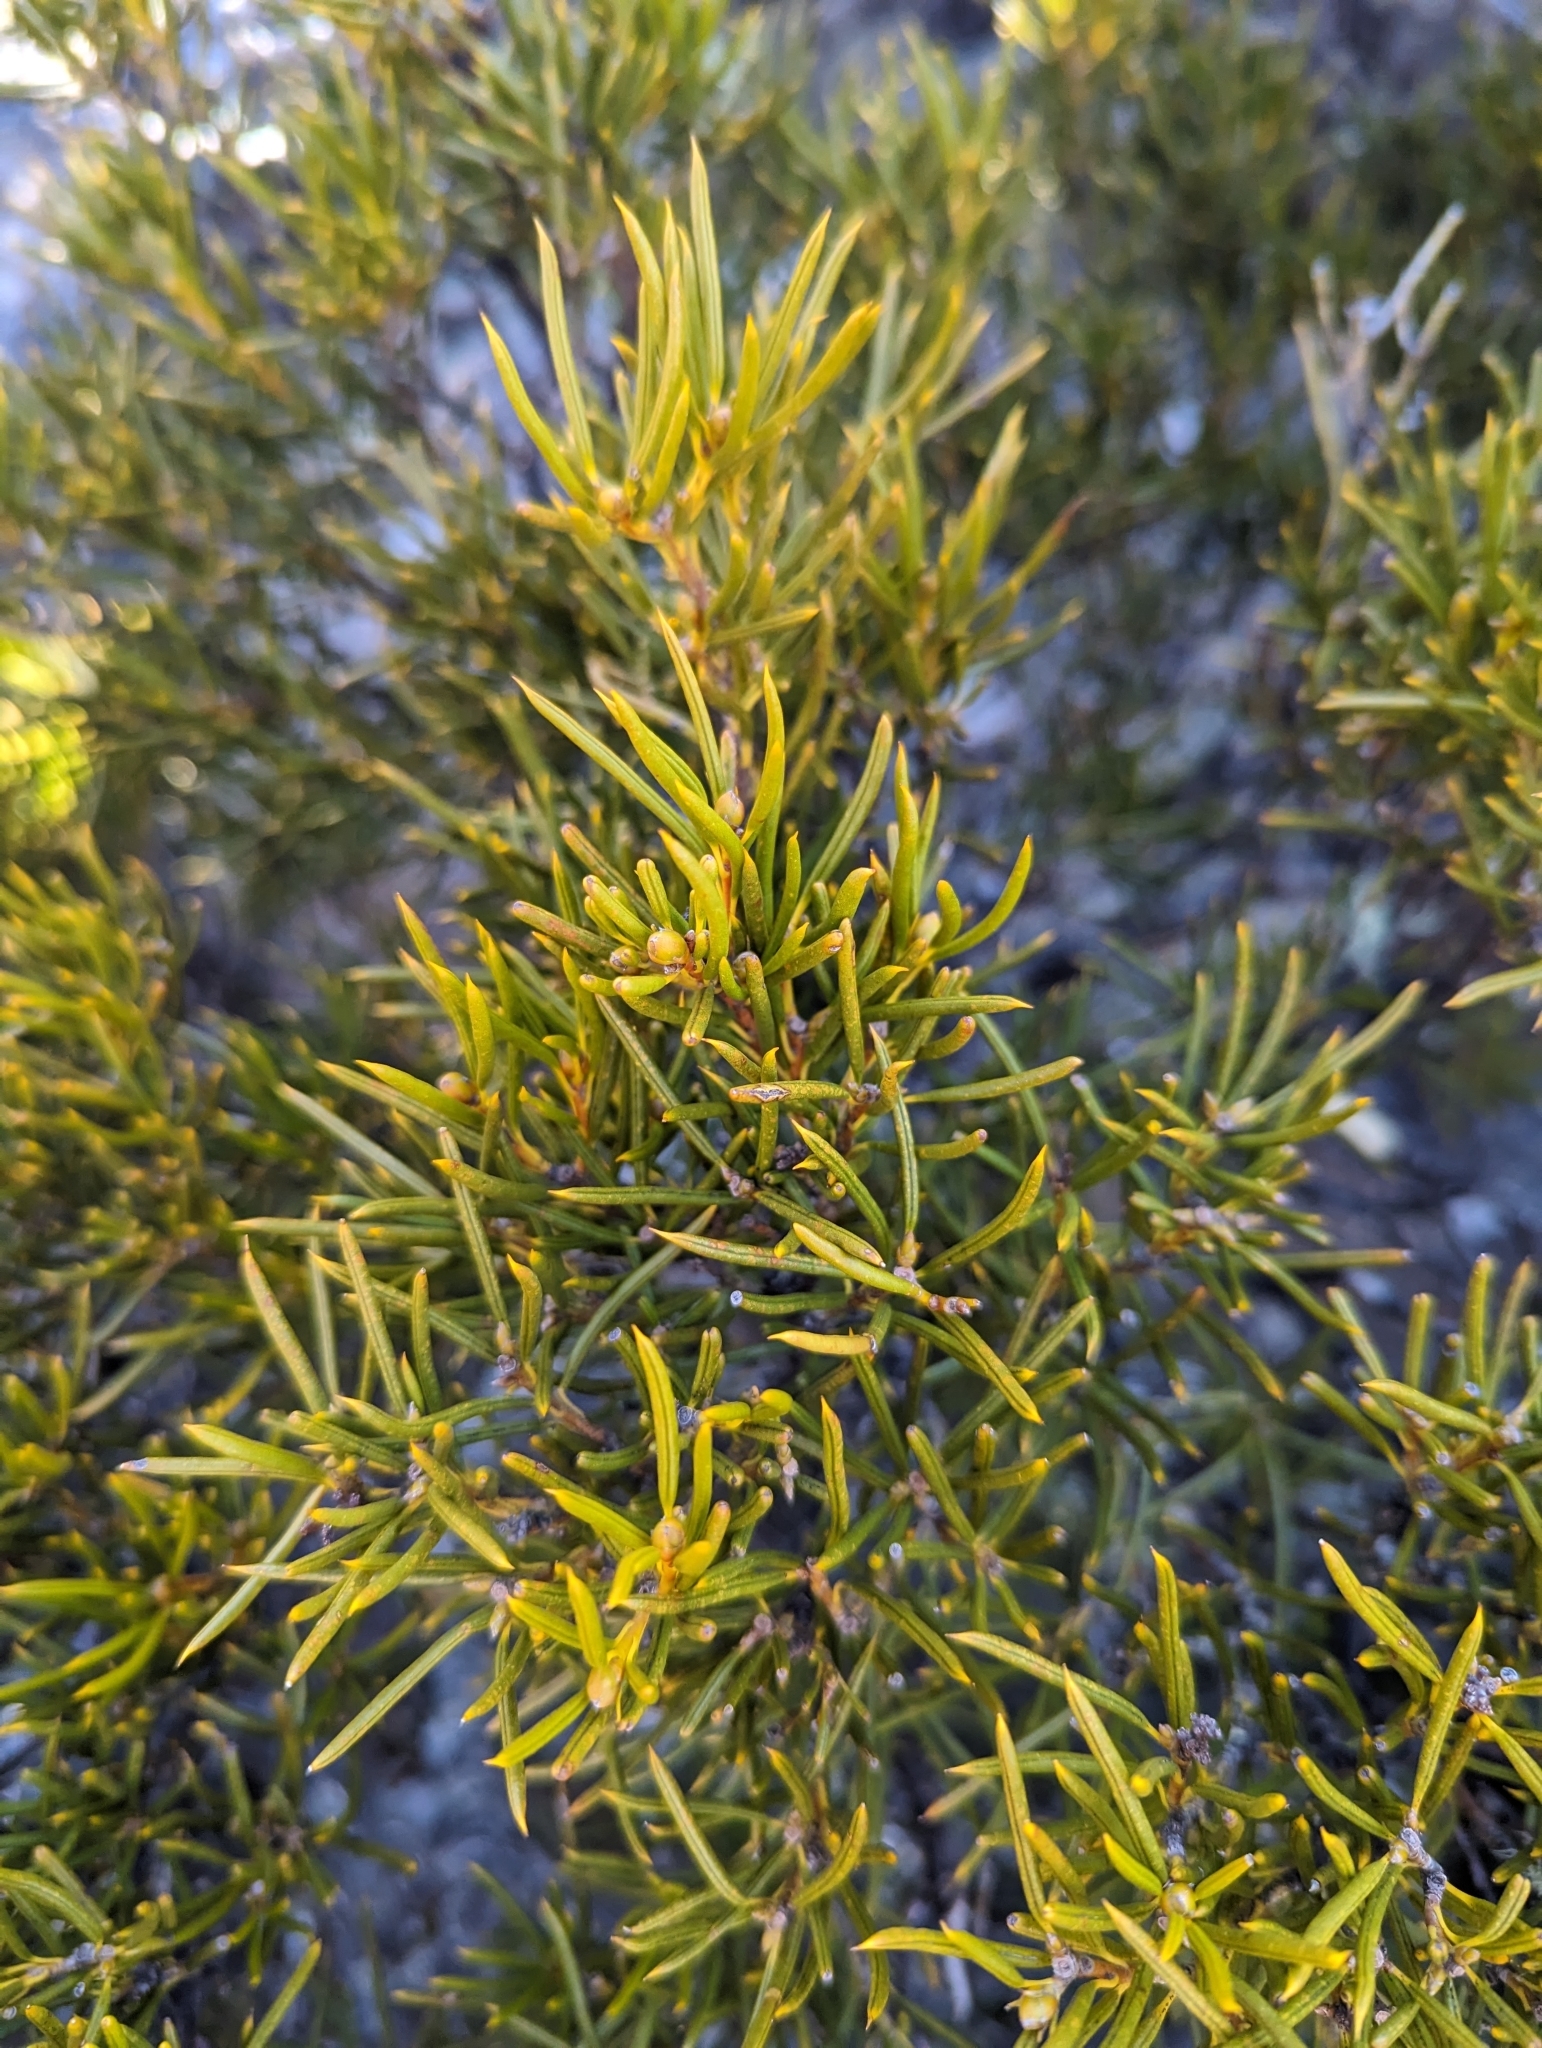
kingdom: Plantae
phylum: Tracheophyta
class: Magnoliopsida
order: Proteales
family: Proteaceae
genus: Orites
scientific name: Orites acicularis
